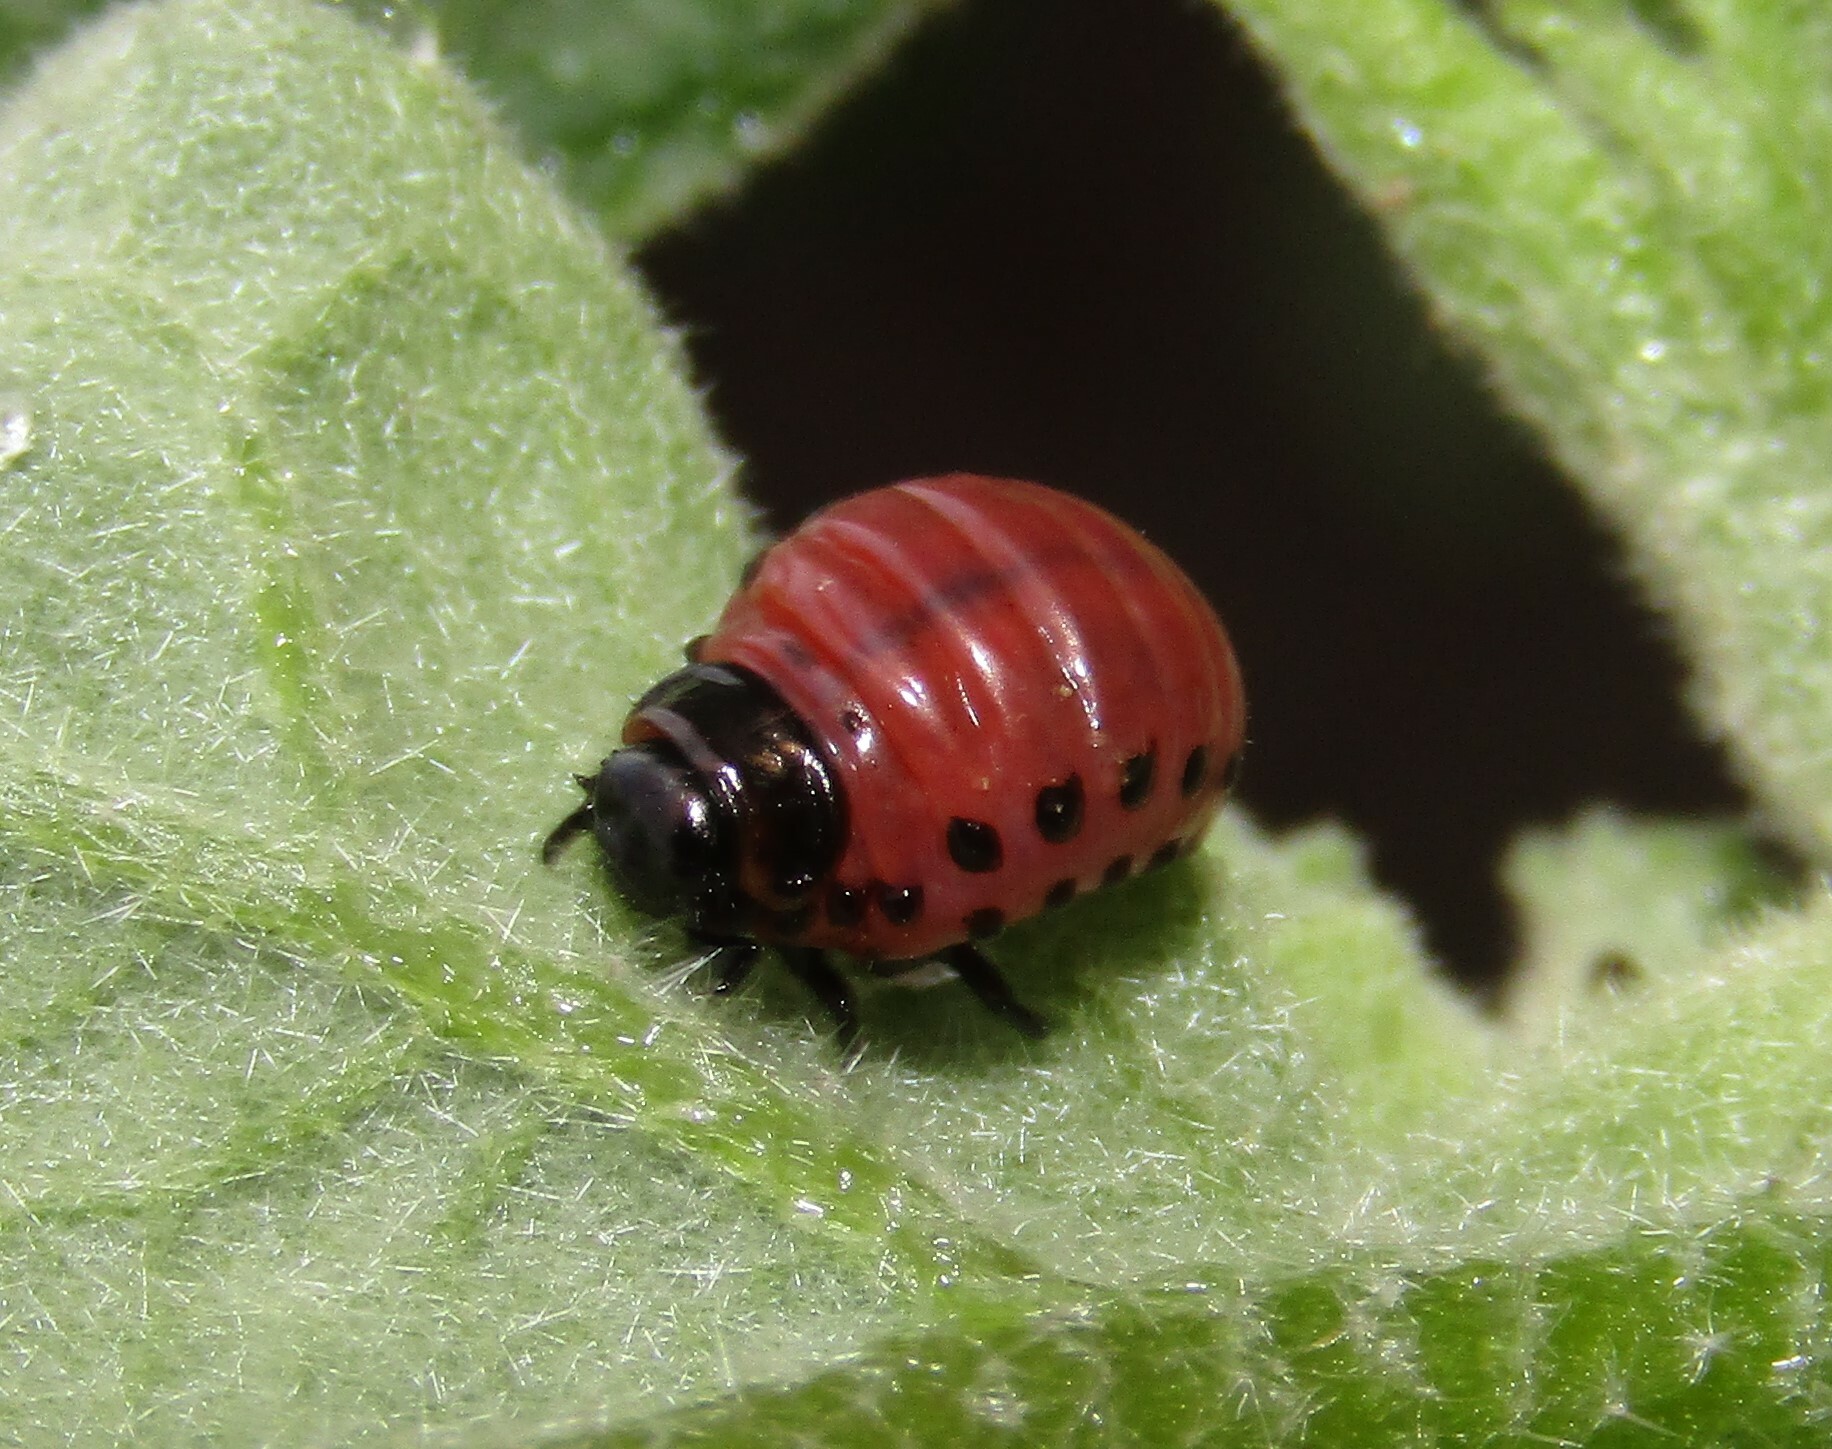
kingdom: Animalia
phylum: Arthropoda
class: Insecta
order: Coleoptera
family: Chrysomelidae
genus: Leptinotarsa
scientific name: Leptinotarsa decemlineata
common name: Colorado potato beetle
